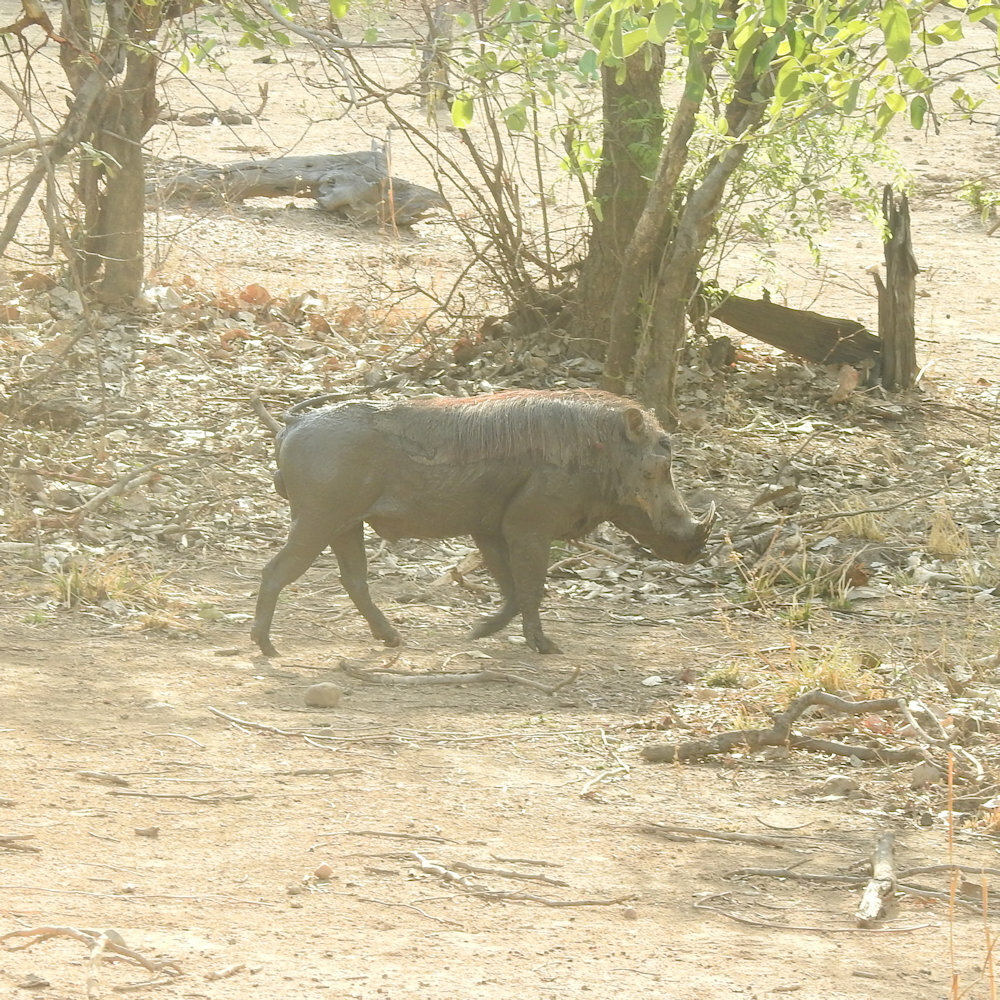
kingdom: Animalia
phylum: Chordata
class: Mammalia
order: Artiodactyla
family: Suidae
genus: Phacochoerus
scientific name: Phacochoerus africanus
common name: Common warthog
